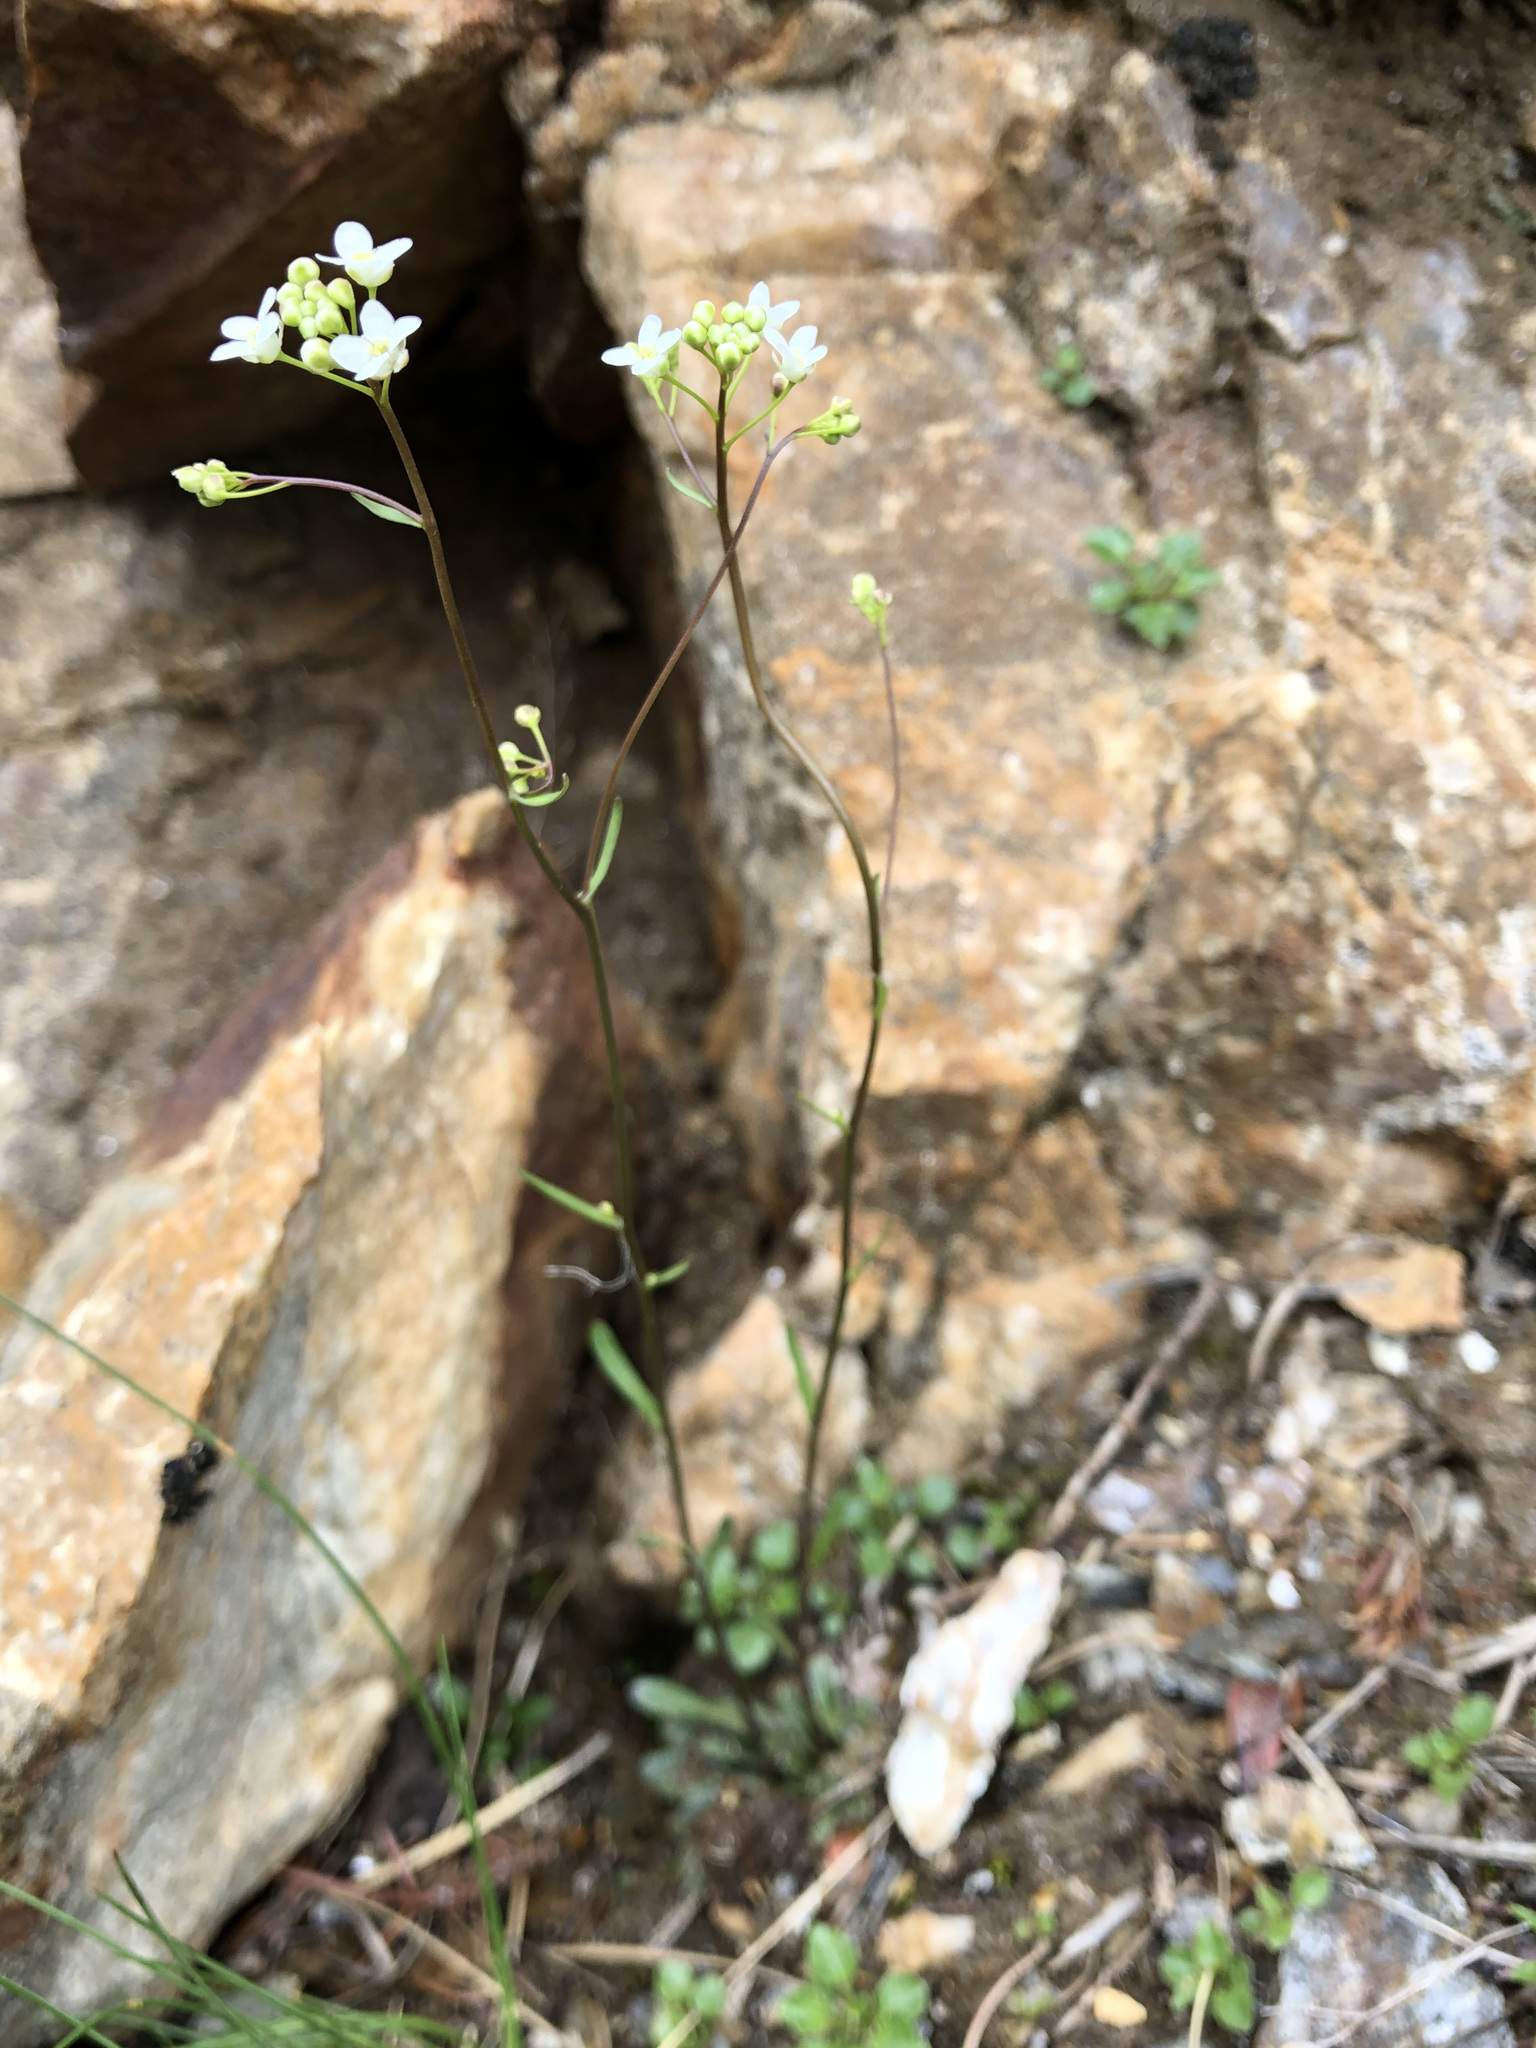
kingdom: Plantae
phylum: Tracheophyta
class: Magnoliopsida
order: Brassicales
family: Brassicaceae
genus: Kernera
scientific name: Kernera saxatilis
